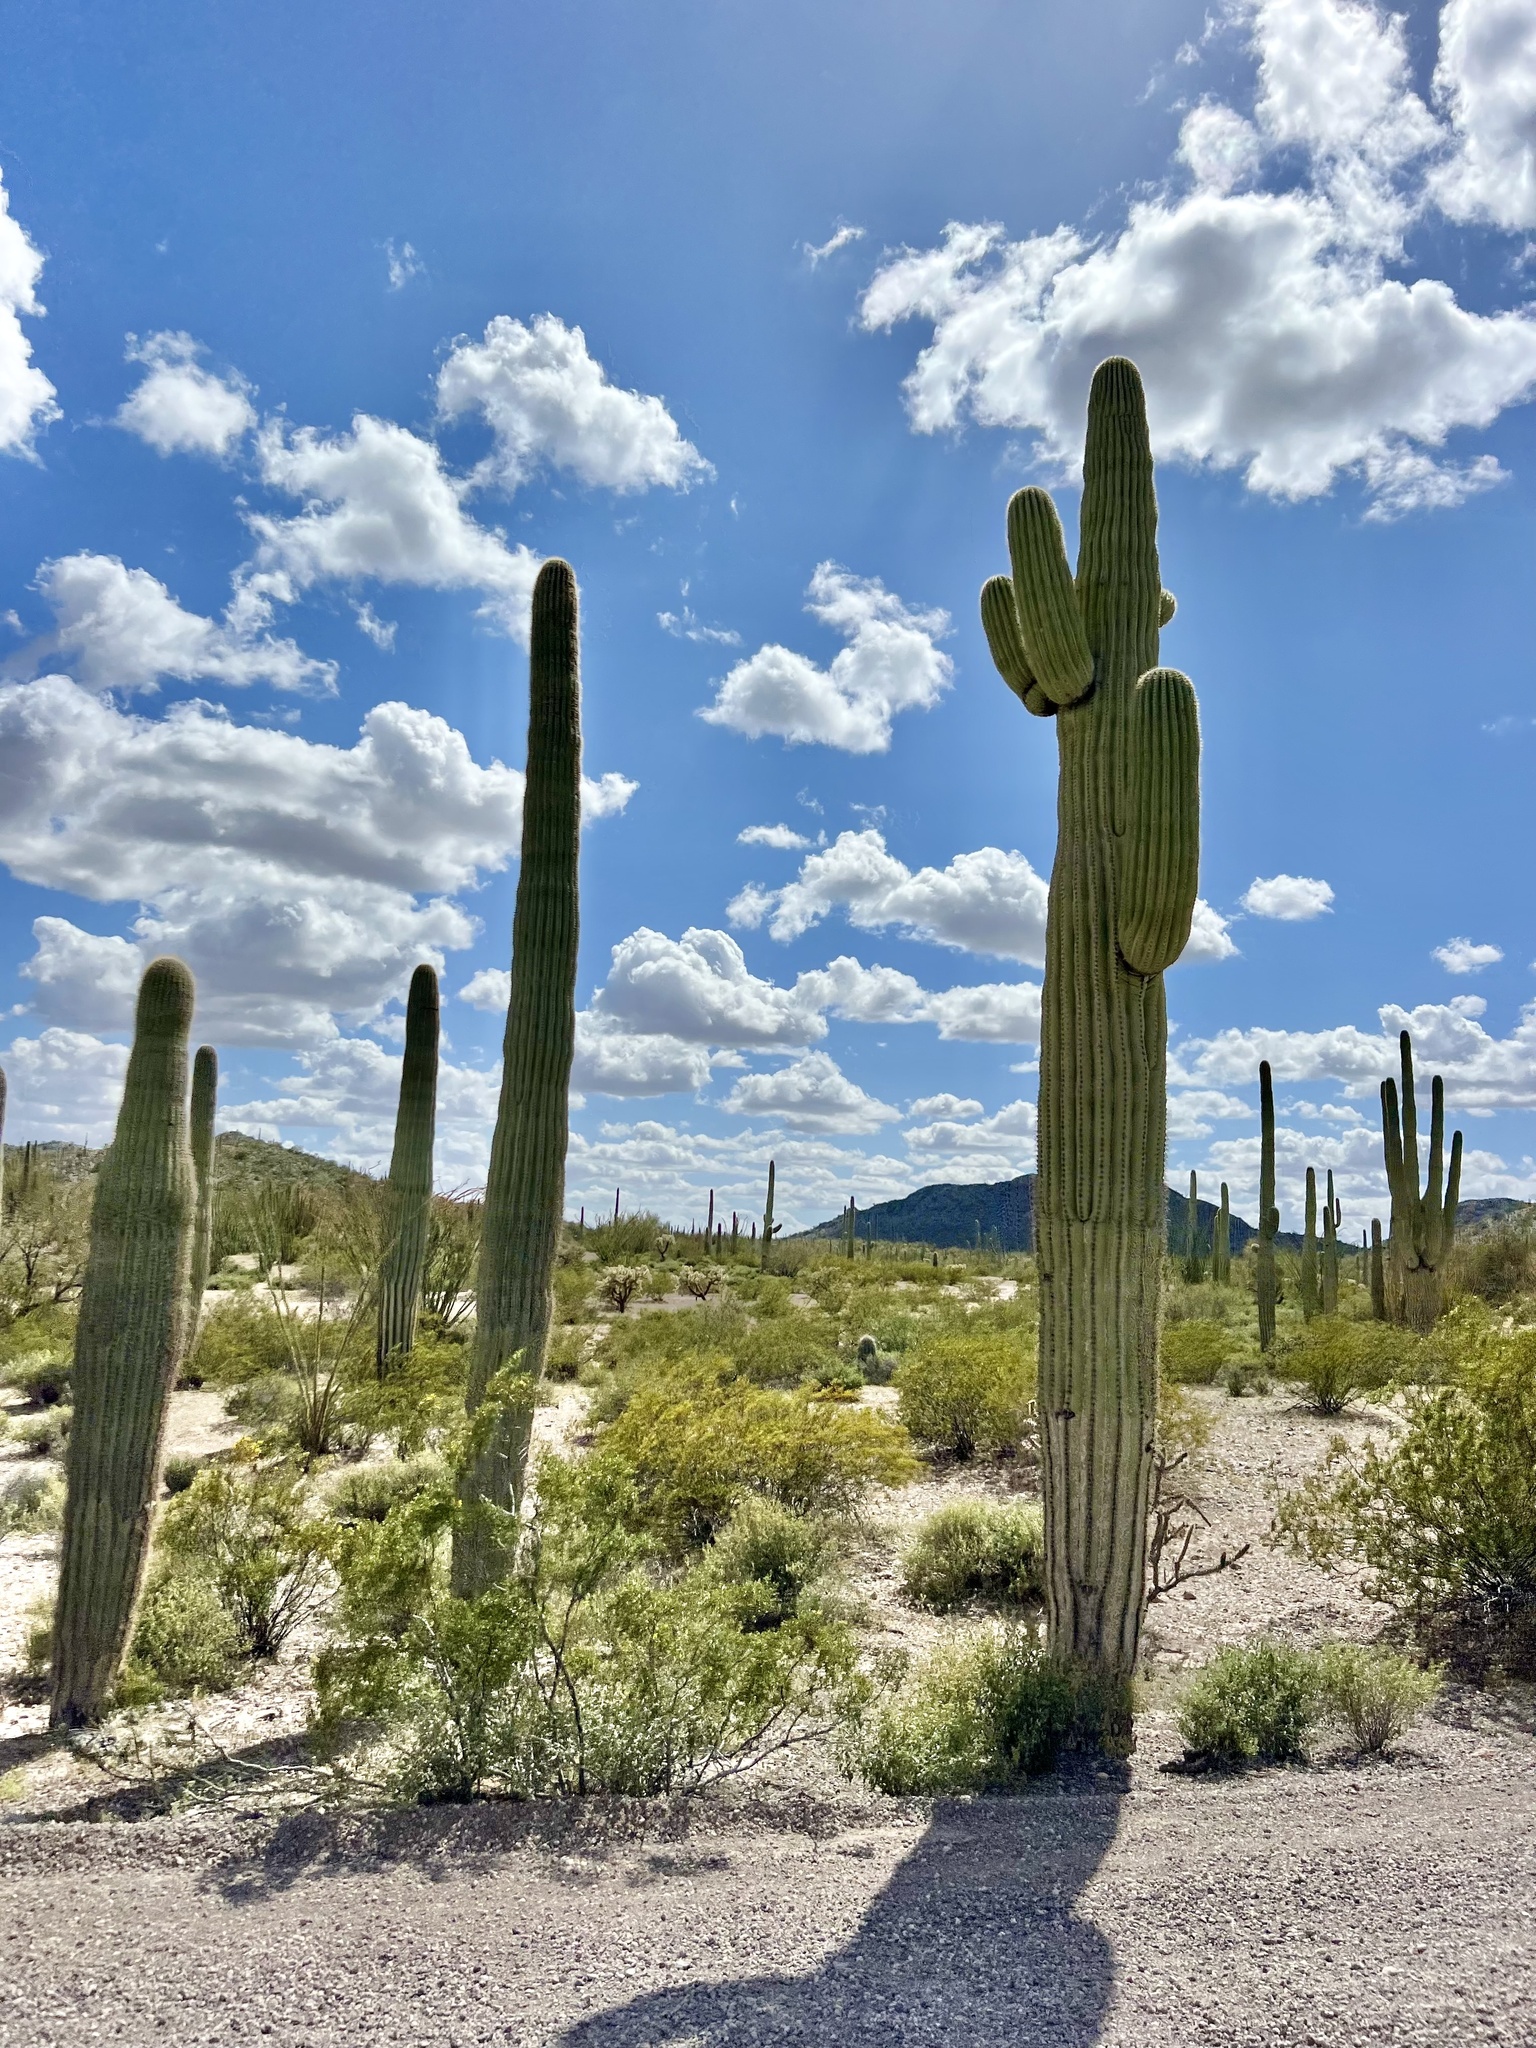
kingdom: Plantae
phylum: Tracheophyta
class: Magnoliopsida
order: Caryophyllales
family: Cactaceae
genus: Carnegiea
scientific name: Carnegiea gigantea
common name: Saguaro
